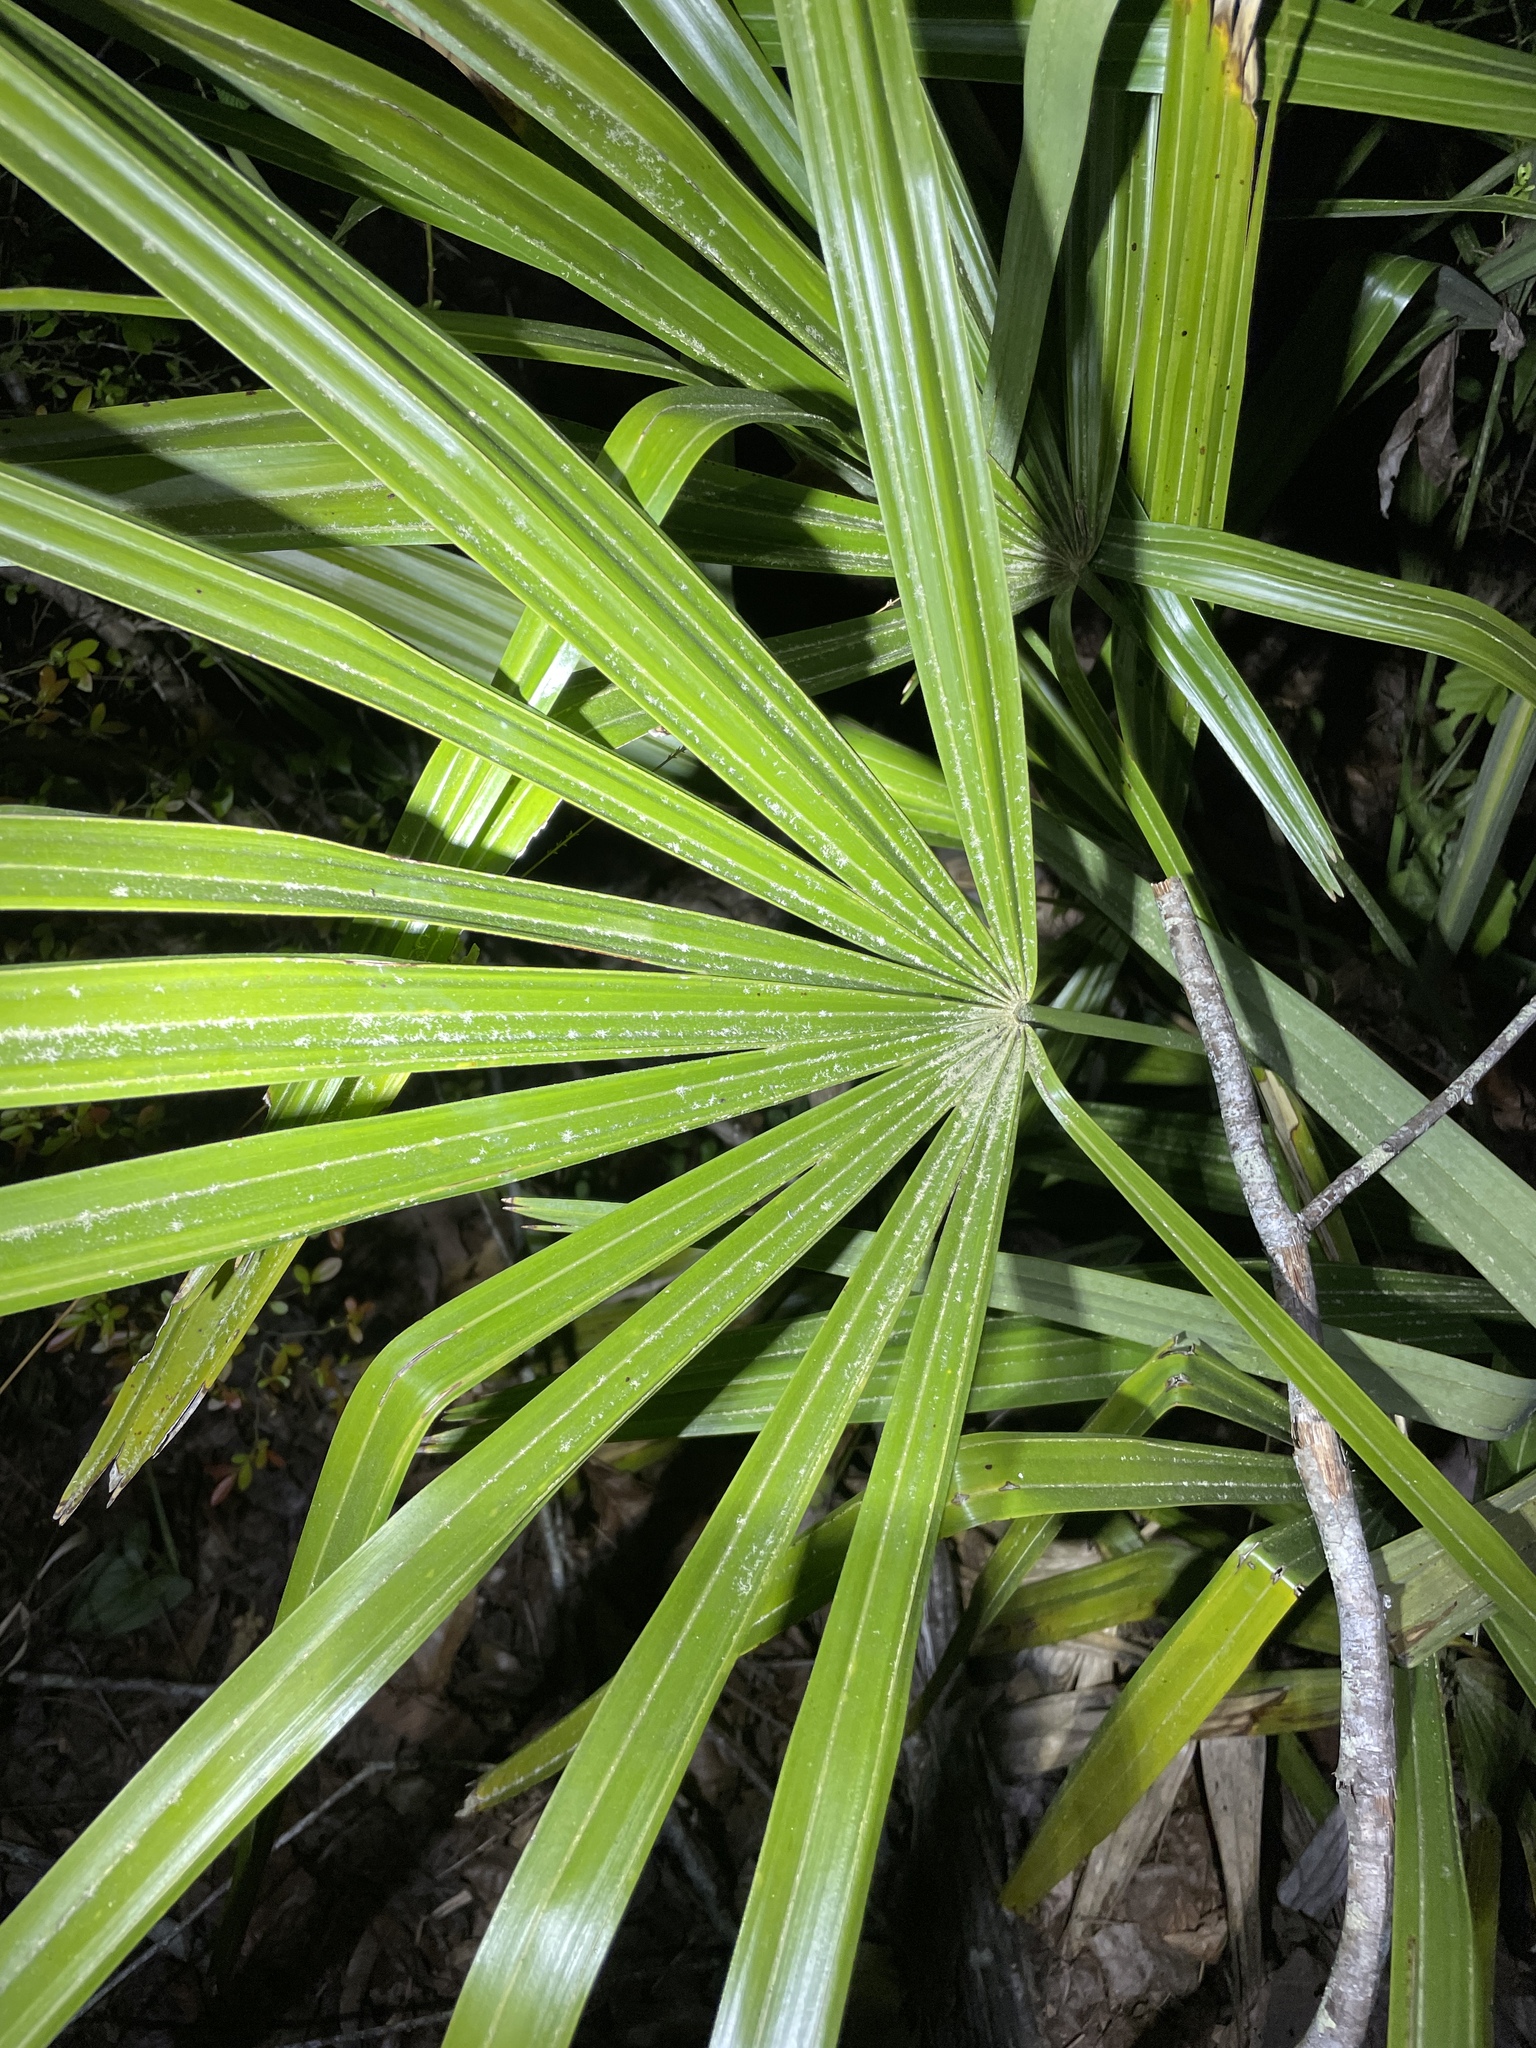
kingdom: Plantae
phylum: Tracheophyta
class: Liliopsida
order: Arecales
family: Arecaceae
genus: Rhapidophyllum
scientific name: Rhapidophyllum hystrix
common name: Porcupine palm
